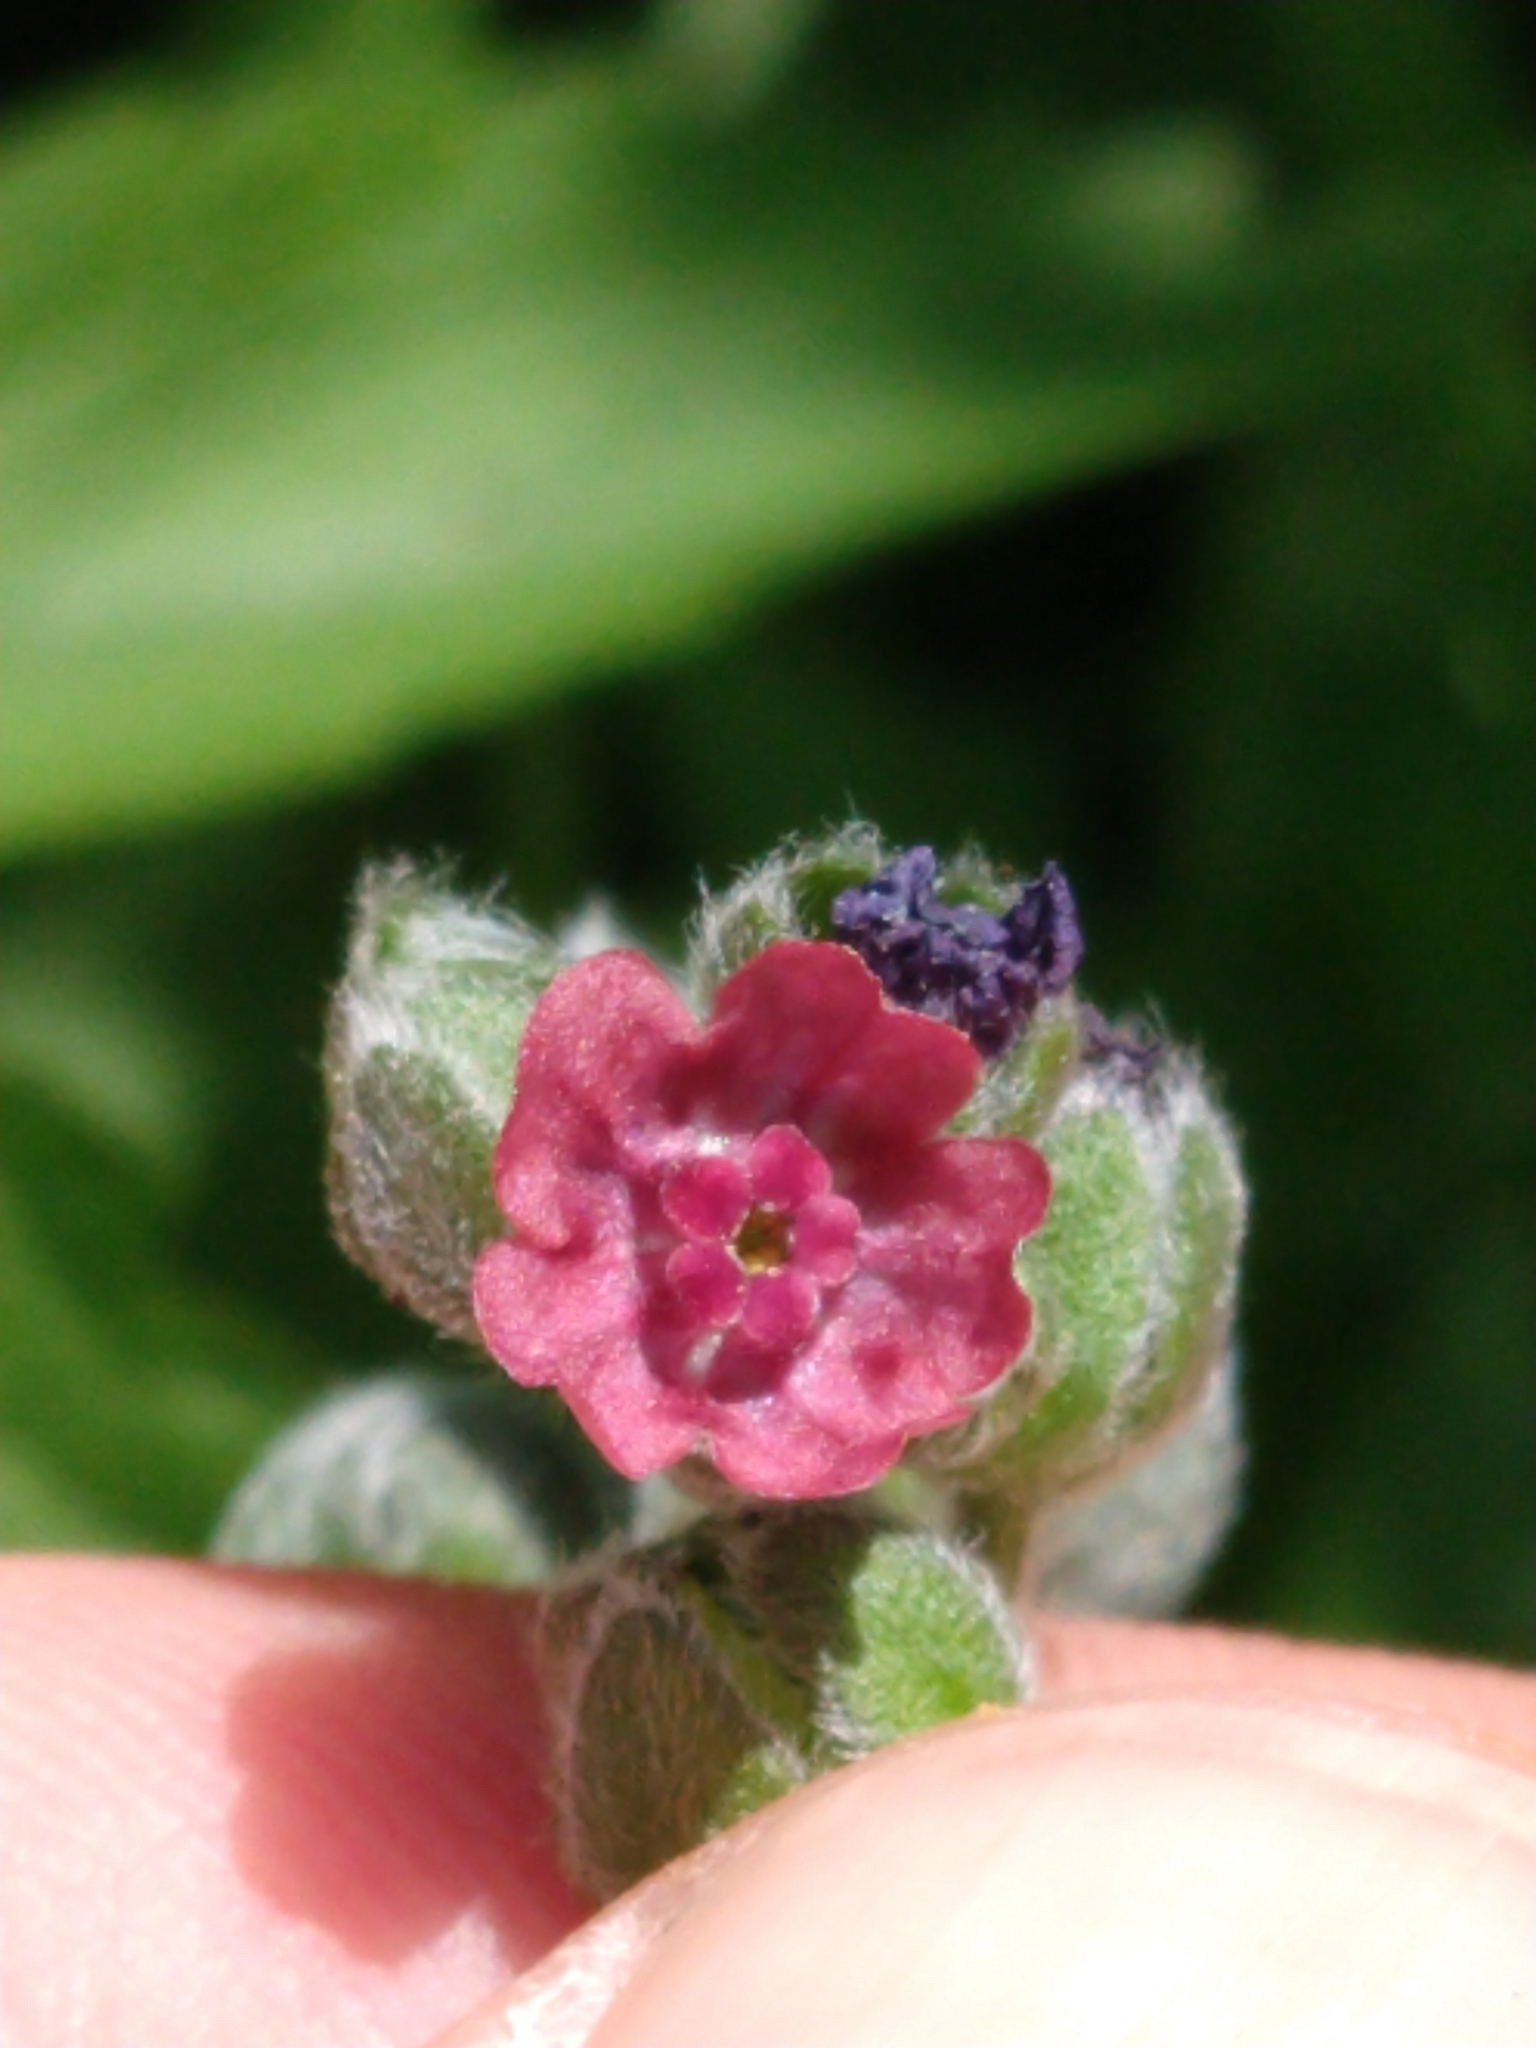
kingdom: Plantae
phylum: Tracheophyta
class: Magnoliopsida
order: Boraginales
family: Boraginaceae
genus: Cynoglossum
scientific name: Cynoglossum officinale
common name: Hound's-tongue
